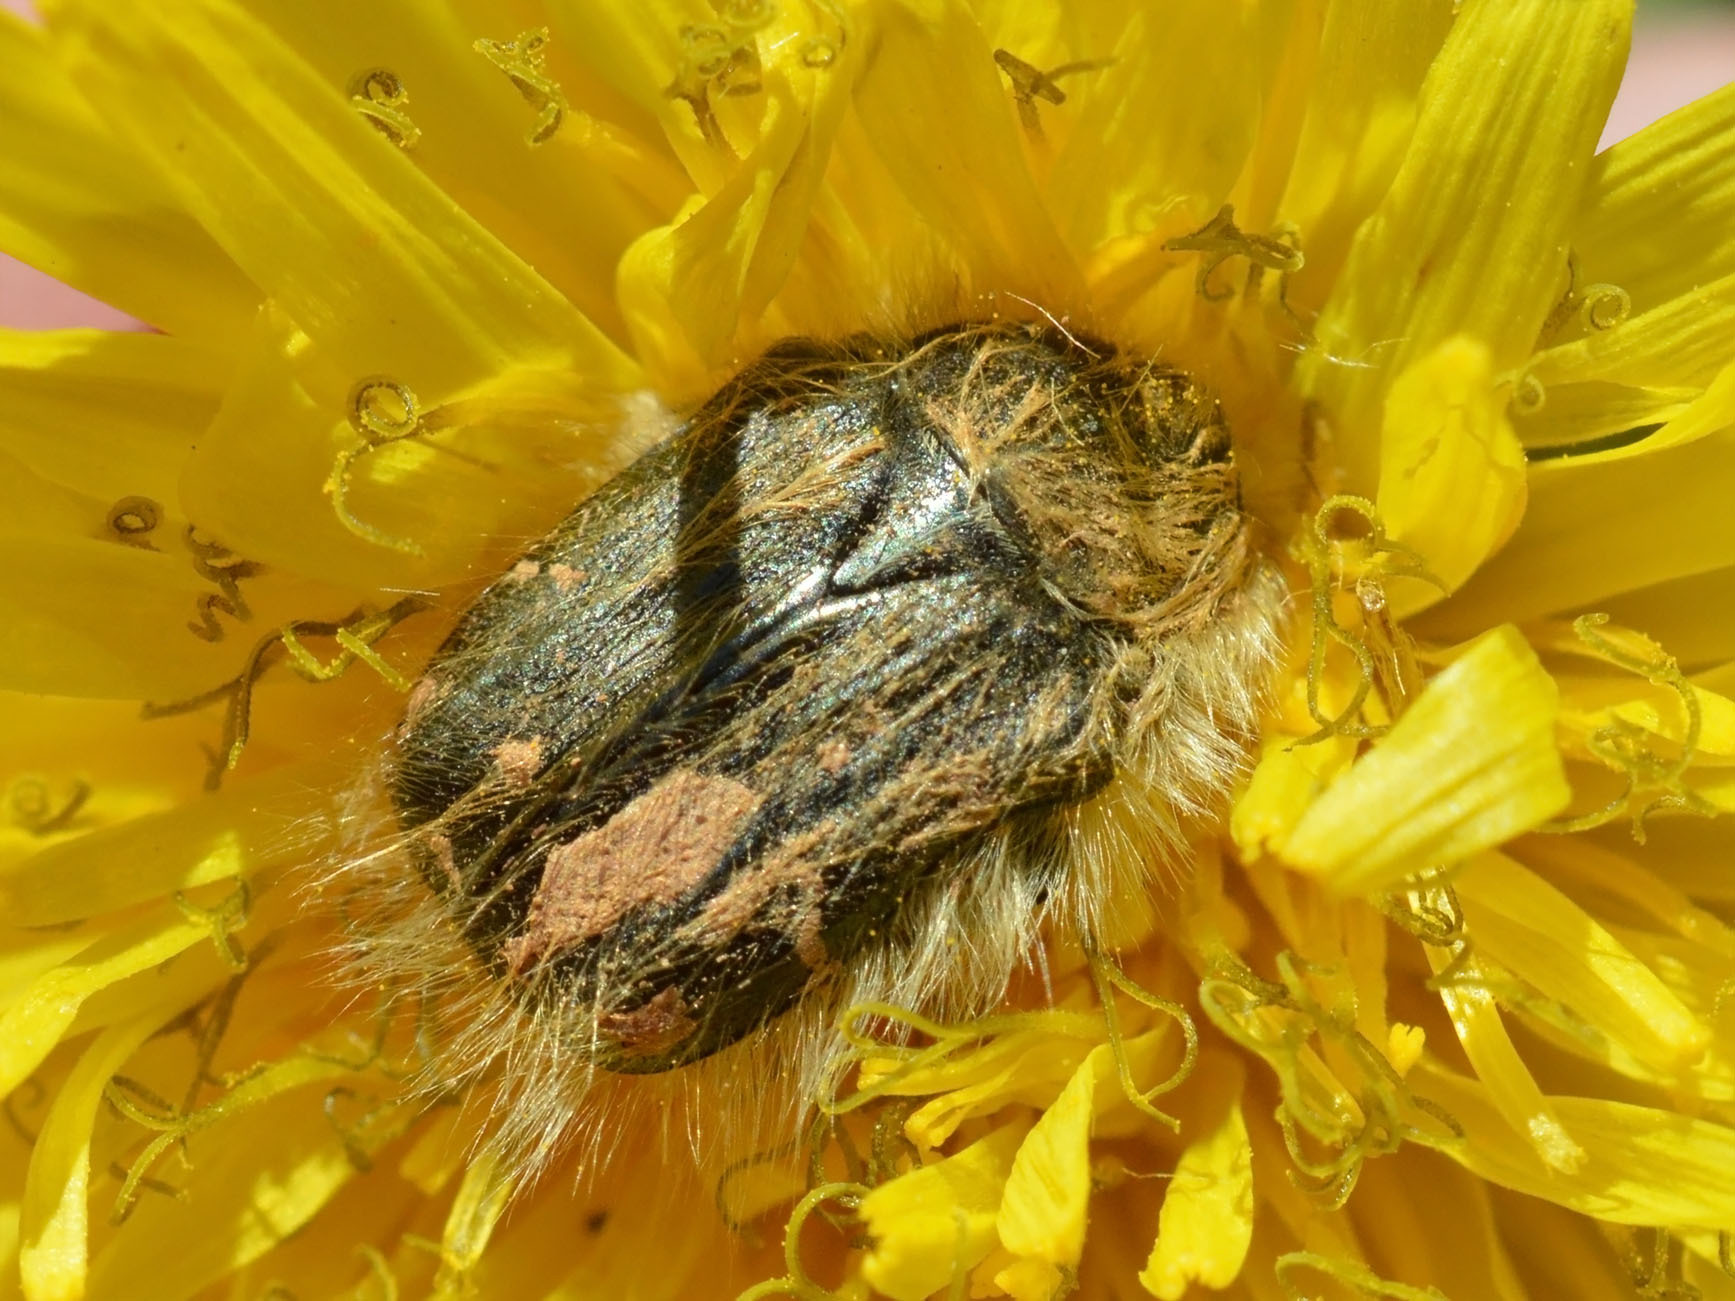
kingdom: Animalia
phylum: Arthropoda
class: Insecta
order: Coleoptera
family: Scarabaeidae
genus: Tropinota
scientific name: Tropinota hirta
